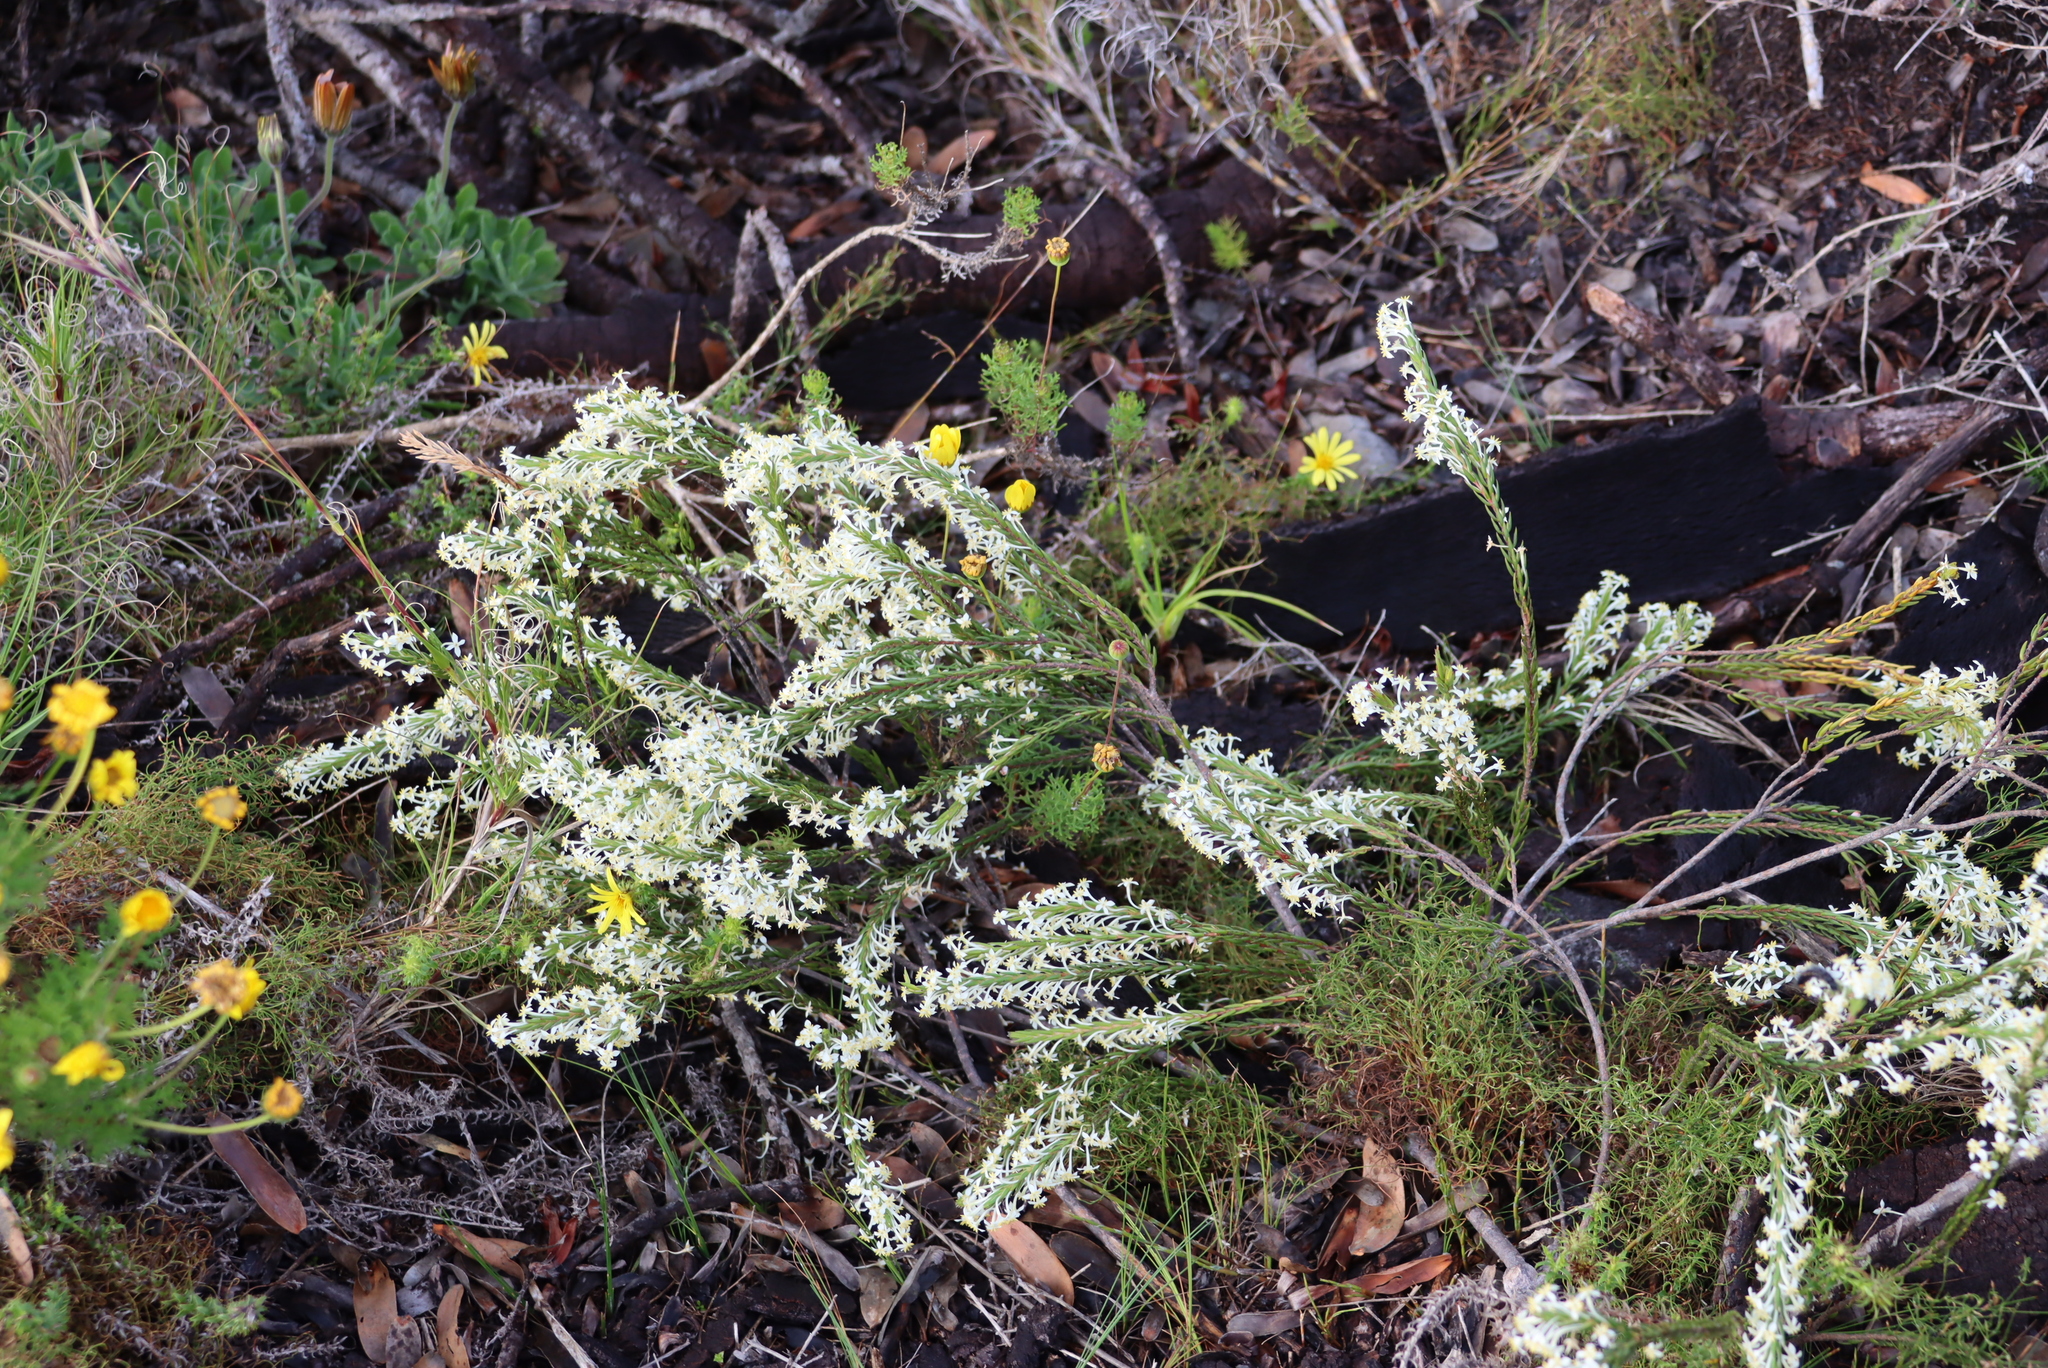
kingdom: Plantae
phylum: Tracheophyta
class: Magnoliopsida
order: Malvales
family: Thymelaeaceae
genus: Struthiola
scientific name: Struthiola ciliata
